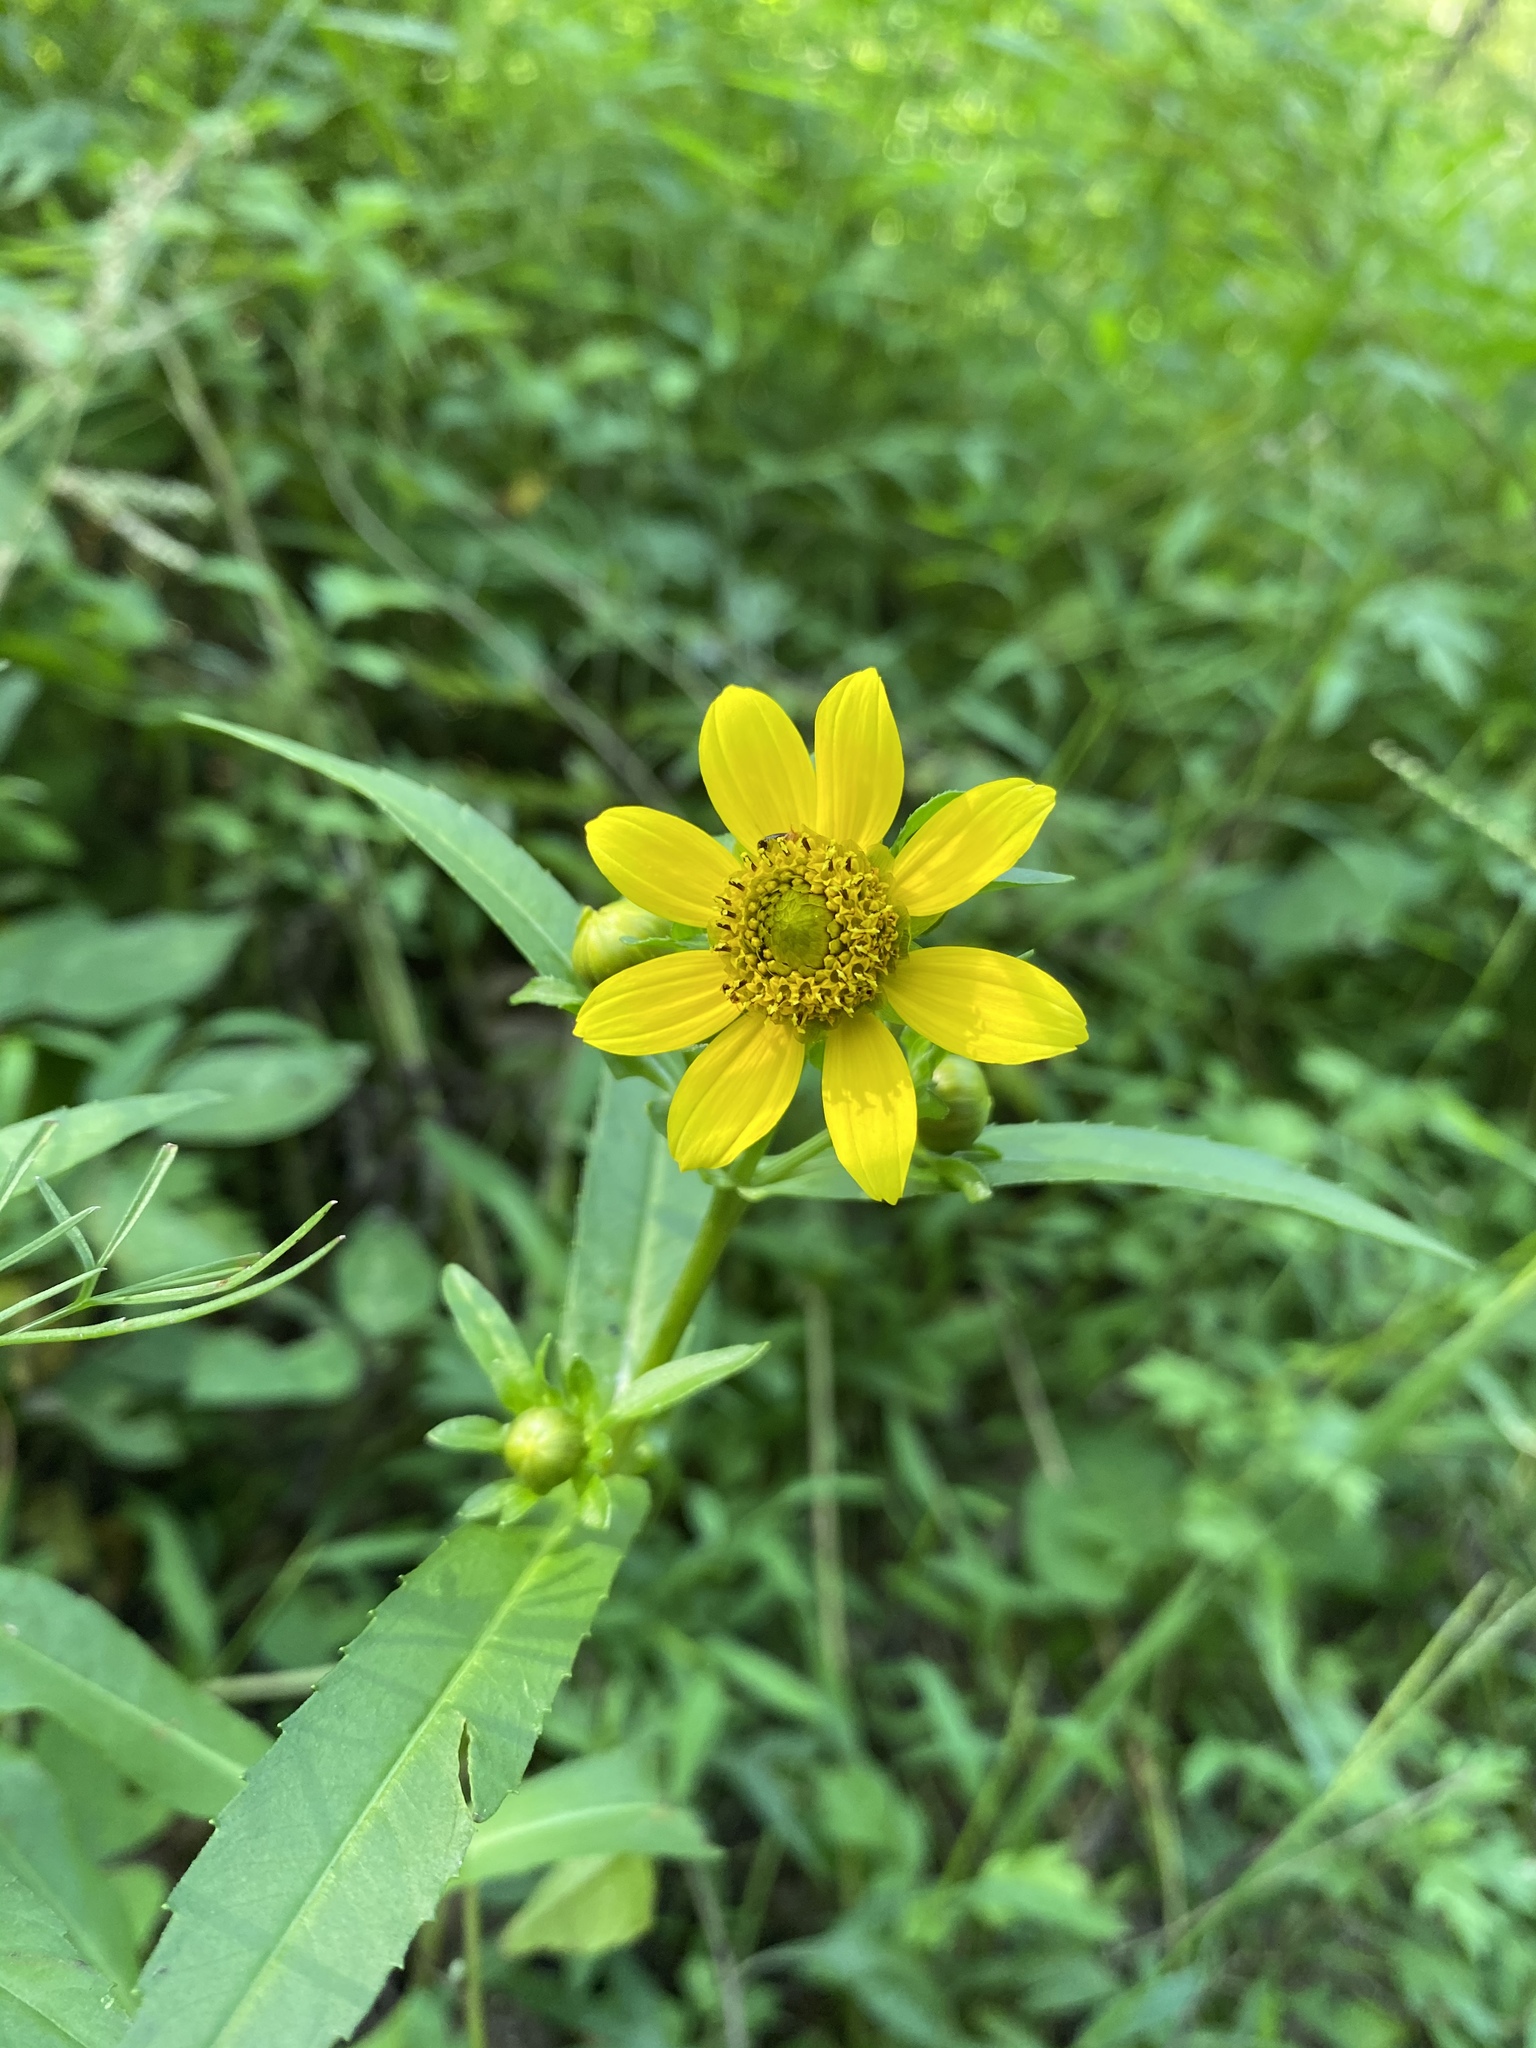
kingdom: Plantae
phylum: Tracheophyta
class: Magnoliopsida
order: Asterales
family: Asteraceae
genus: Bidens
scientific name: Bidens cernua
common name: Nodding bur-marigold
